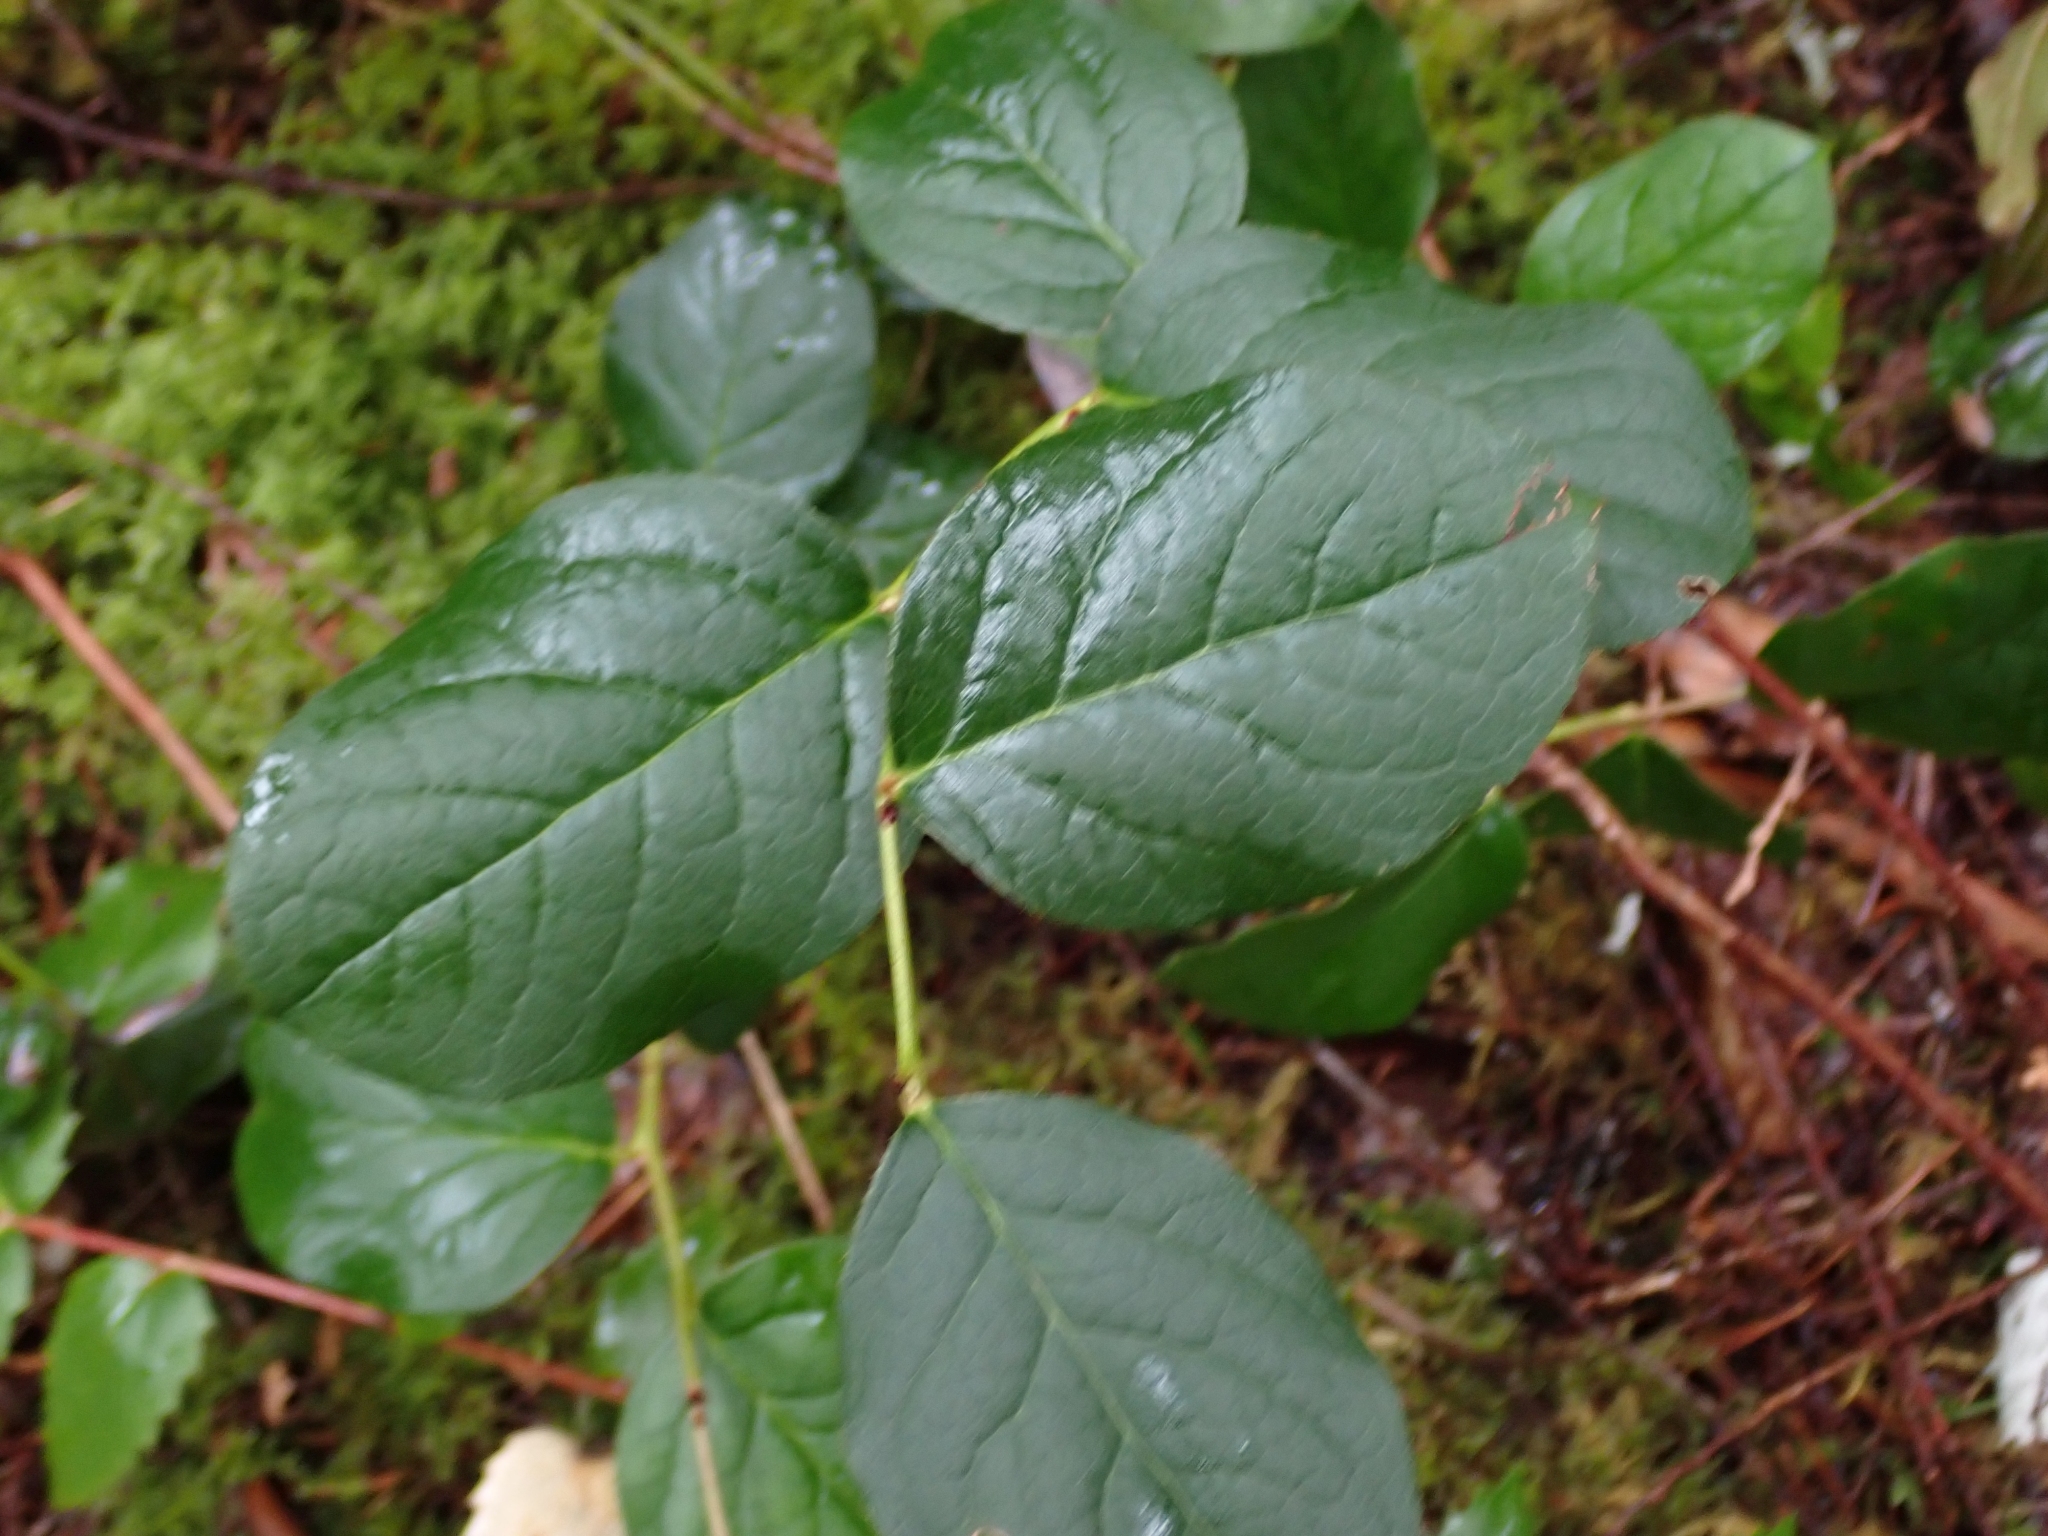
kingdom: Plantae
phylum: Tracheophyta
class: Magnoliopsida
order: Ericales
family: Ericaceae
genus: Gaultheria
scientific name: Gaultheria shallon
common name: Shallon
